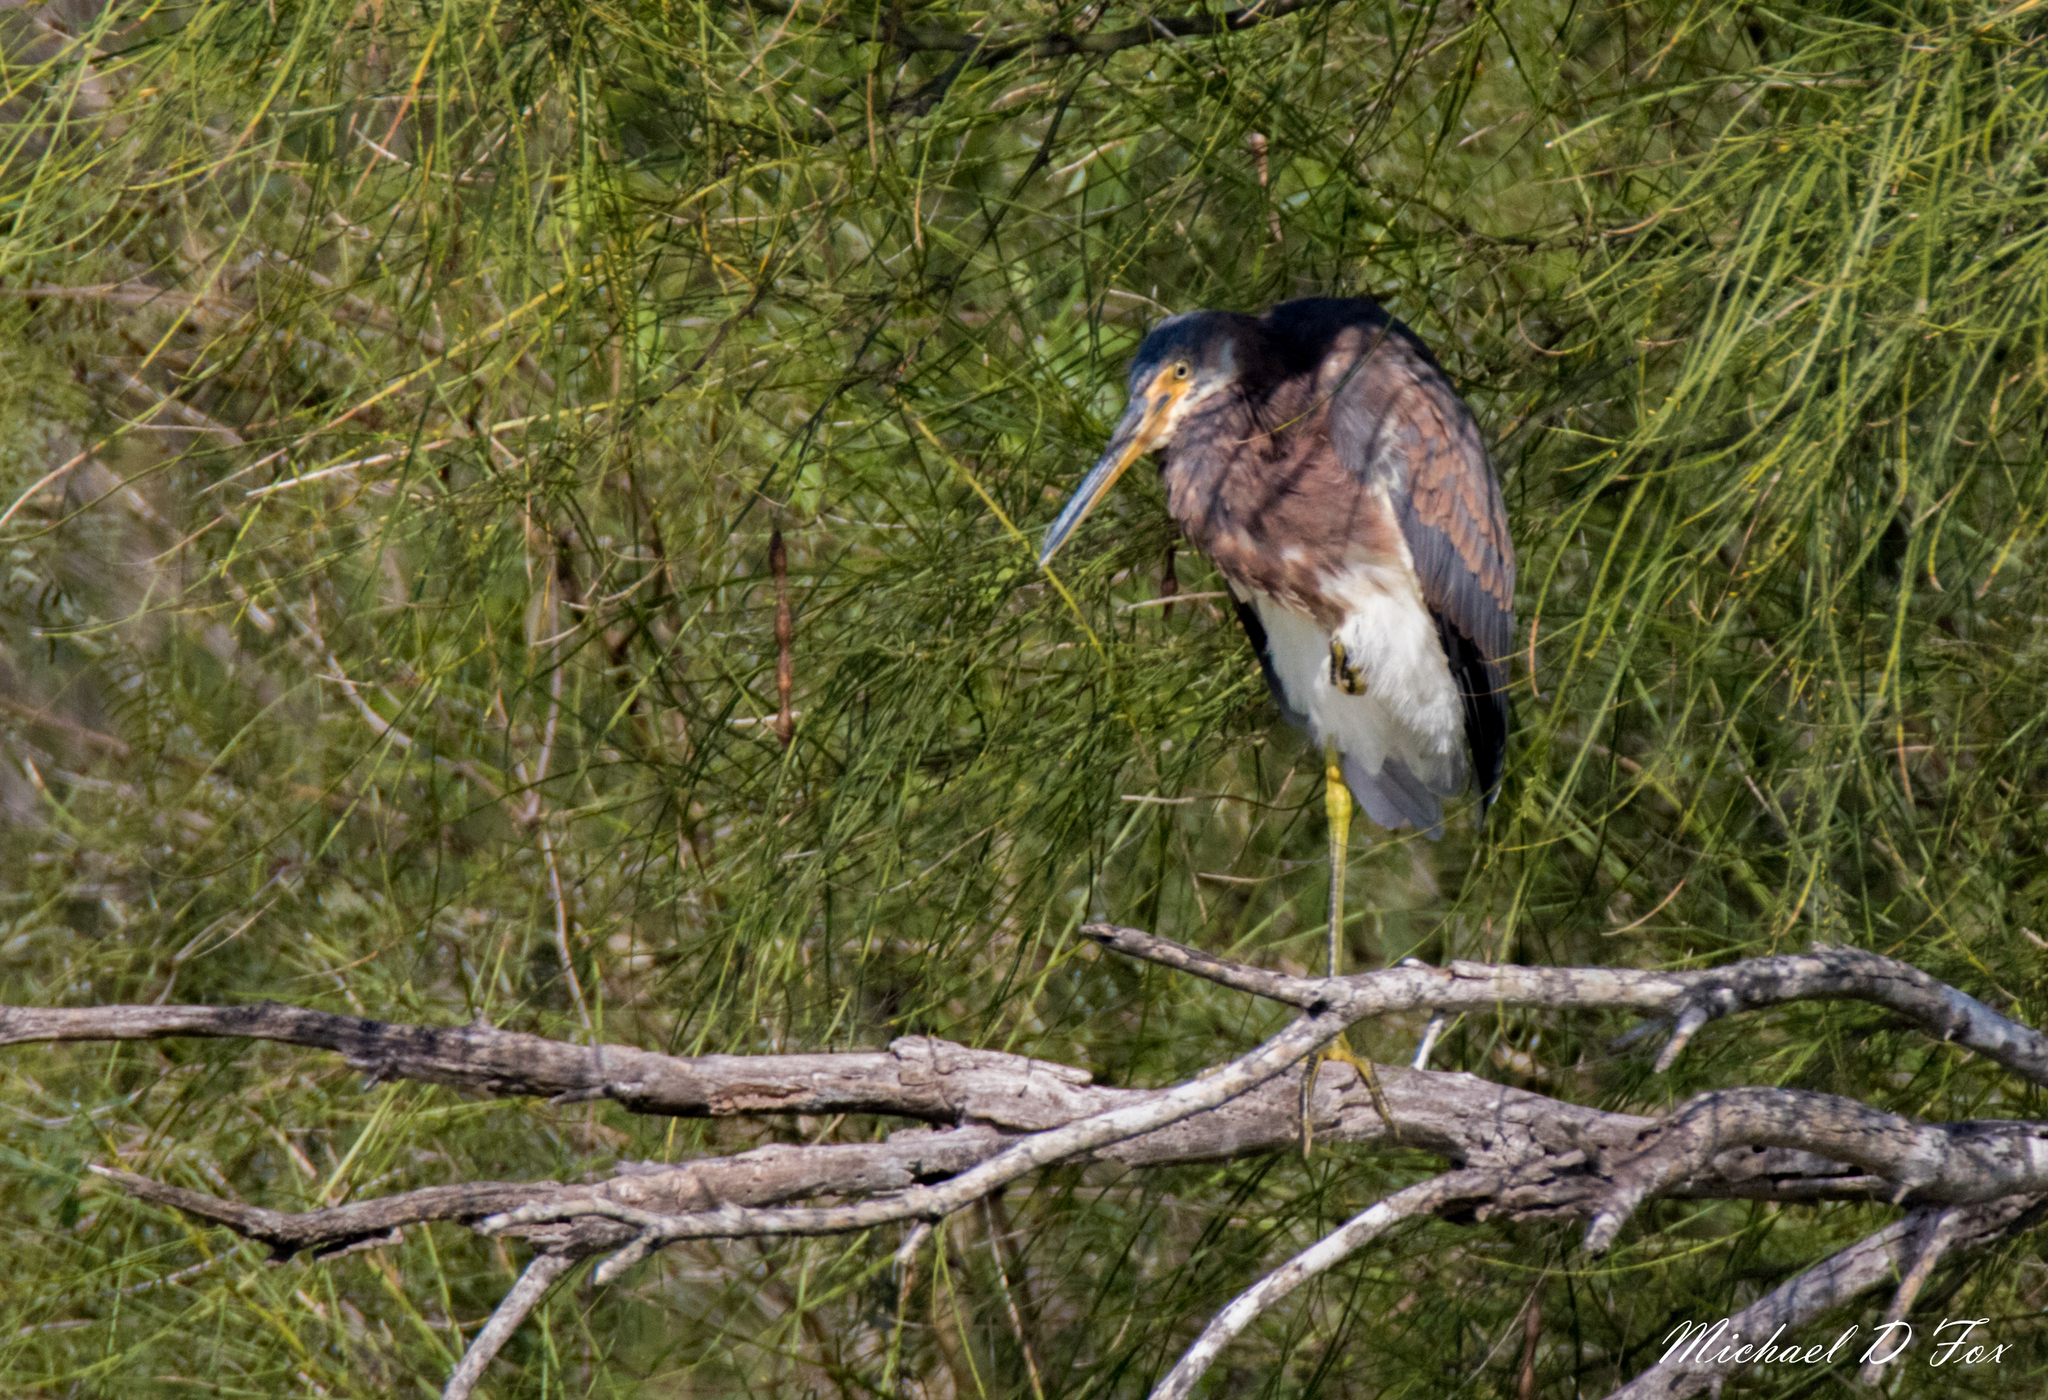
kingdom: Animalia
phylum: Chordata
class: Aves
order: Pelecaniformes
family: Ardeidae
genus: Egretta
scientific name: Egretta tricolor
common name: Tricolored heron
